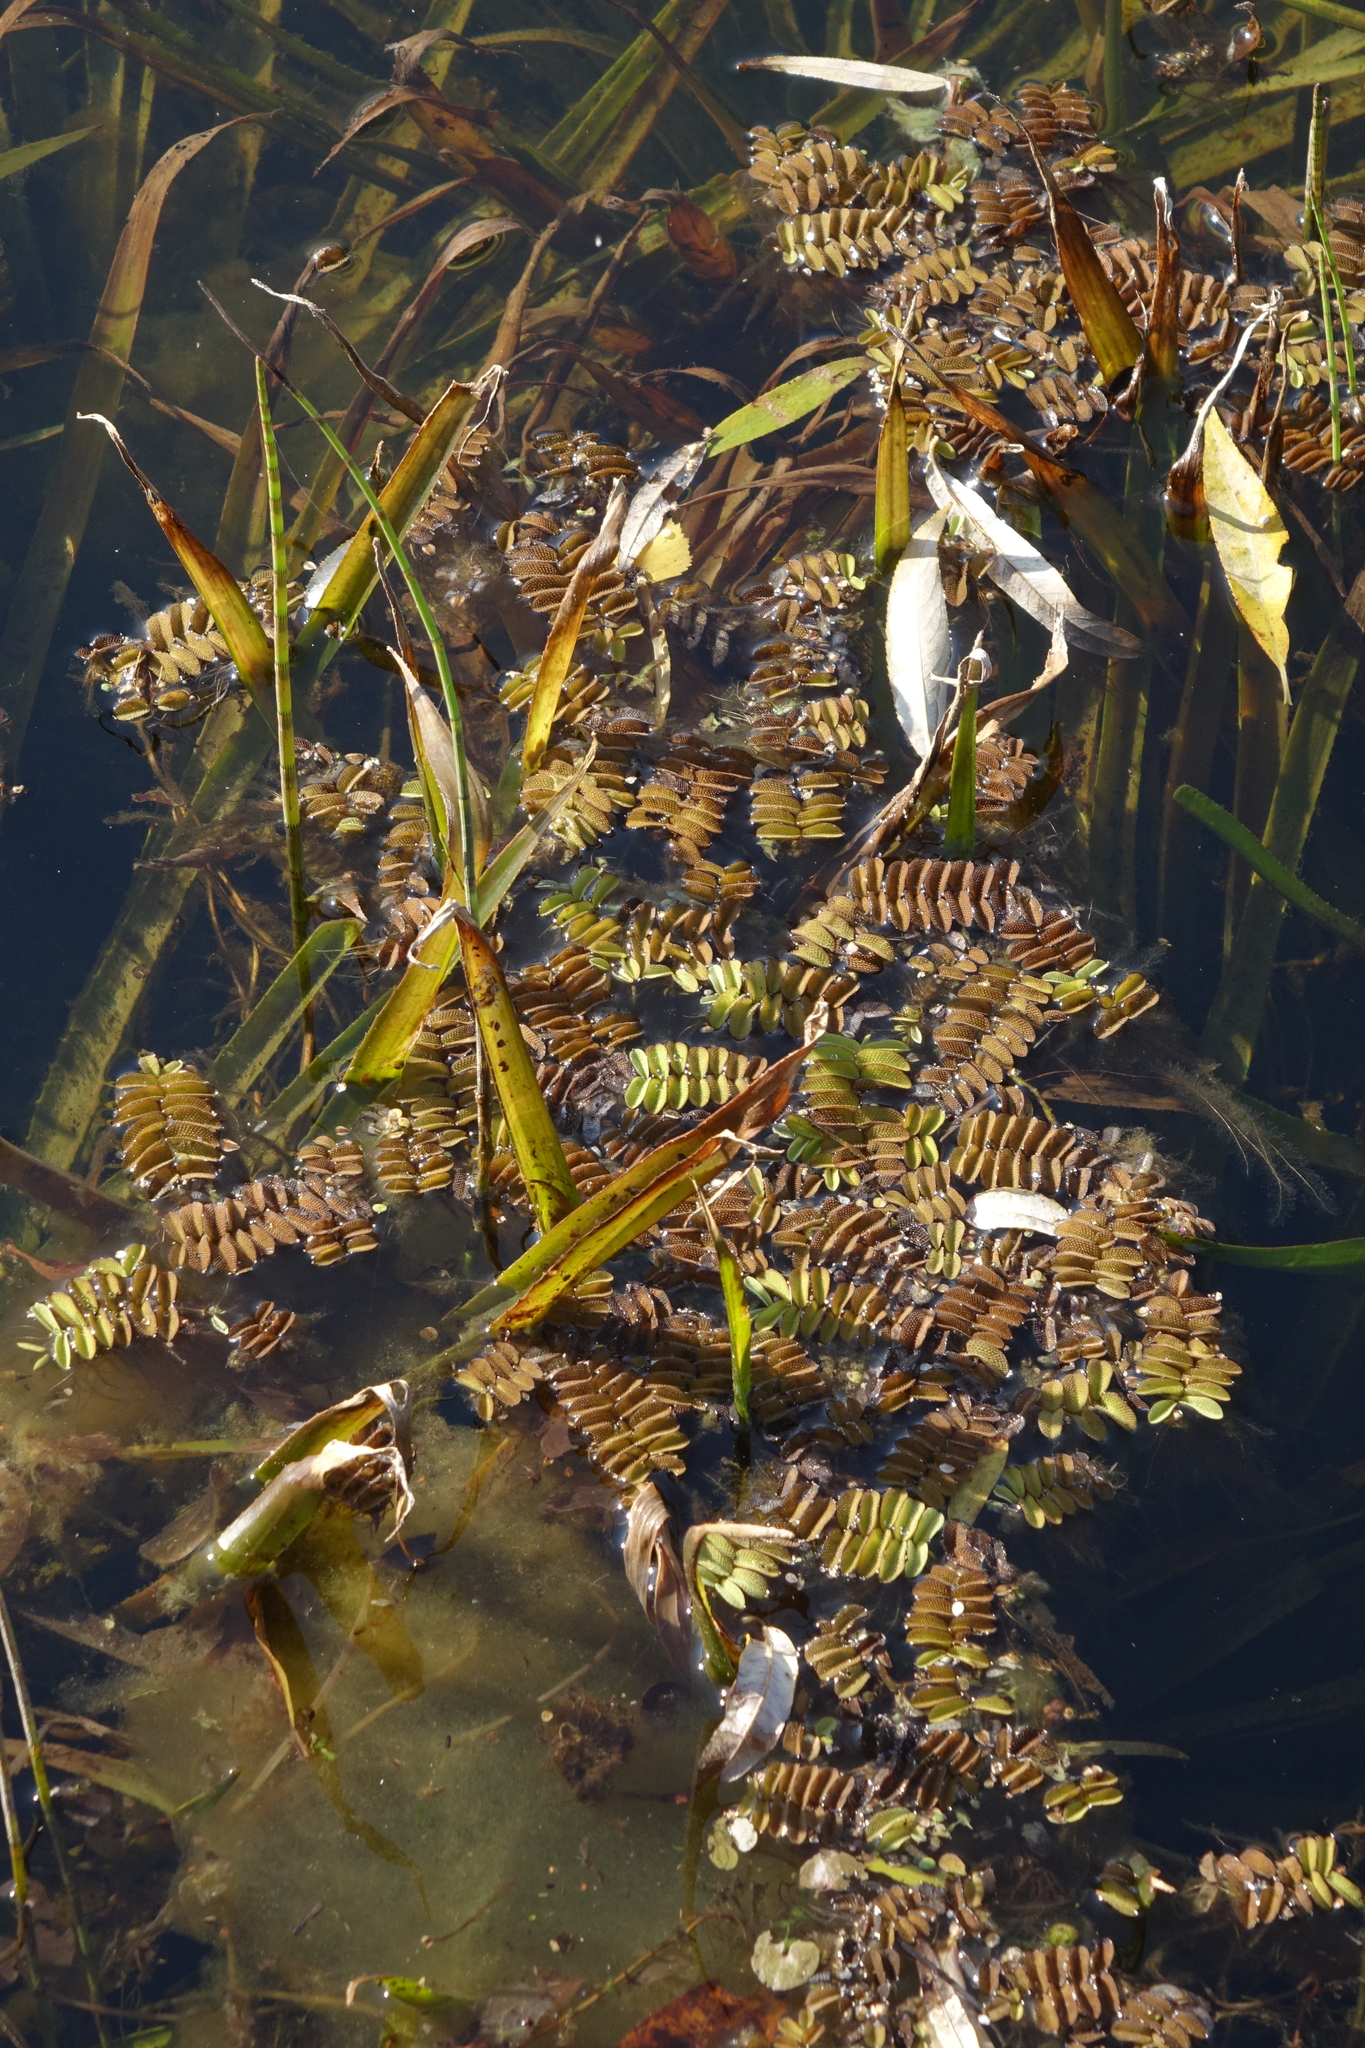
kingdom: Plantae
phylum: Tracheophyta
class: Polypodiopsida
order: Salviniales
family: Salviniaceae
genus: Salvinia
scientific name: Salvinia natans
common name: Floating fern
